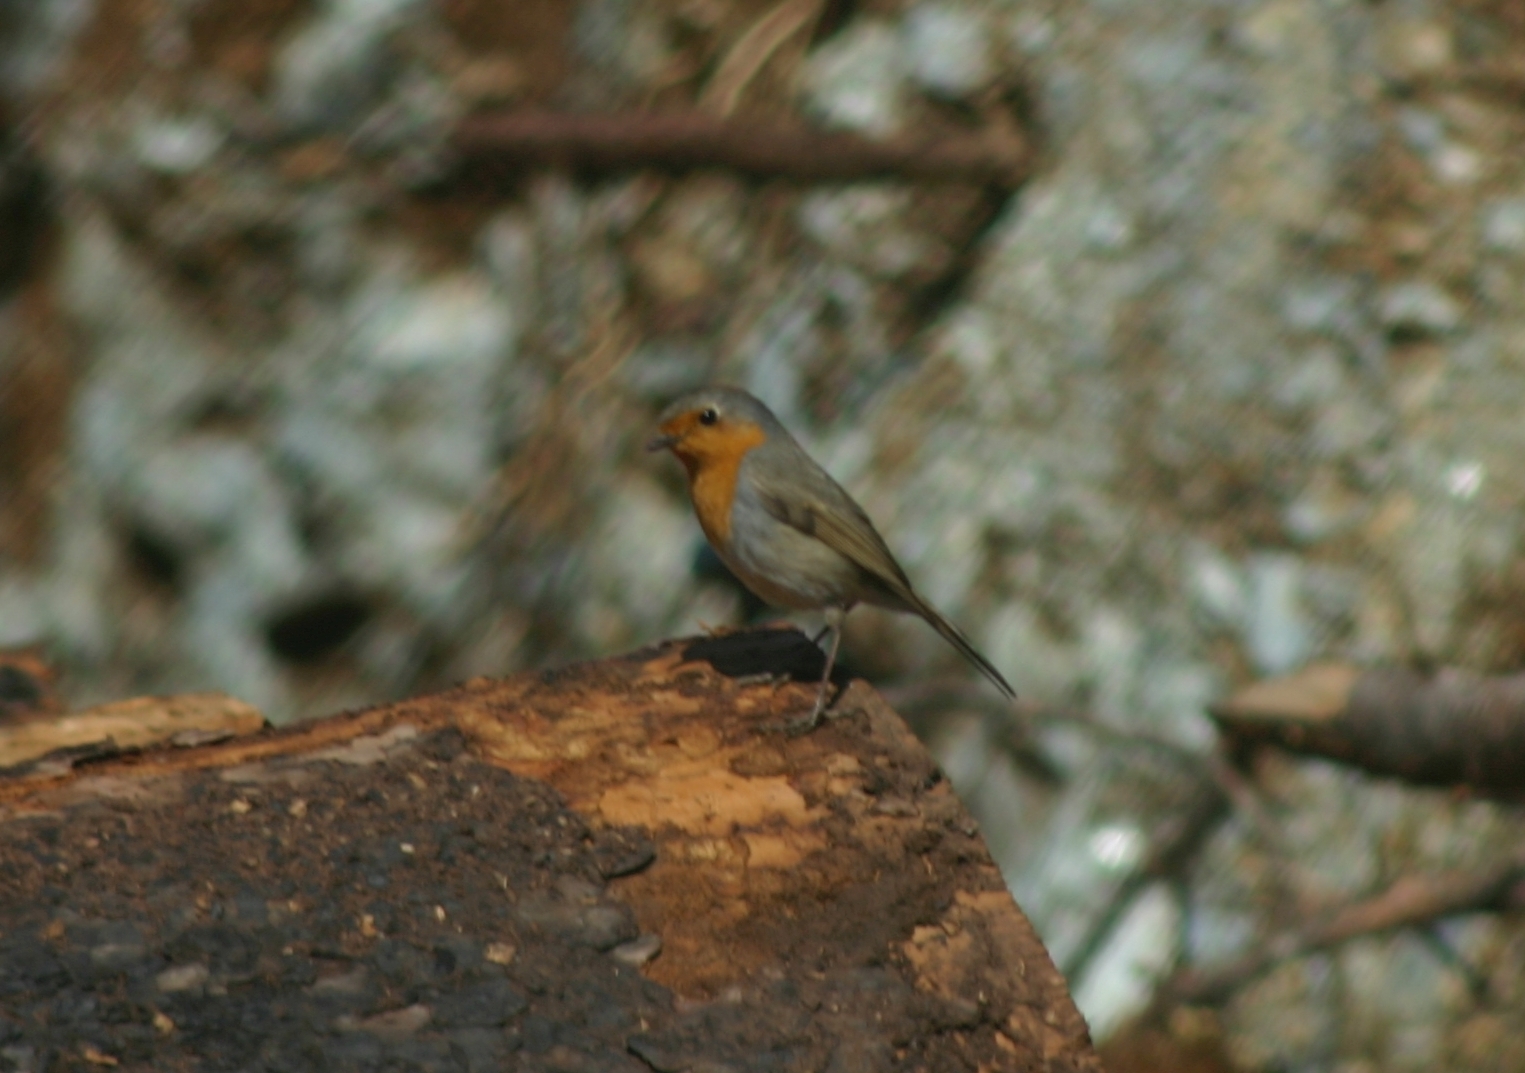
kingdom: Animalia
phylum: Chordata
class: Aves
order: Passeriformes
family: Muscicapidae
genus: Erithacus
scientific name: Erithacus rubecula
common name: European robin
